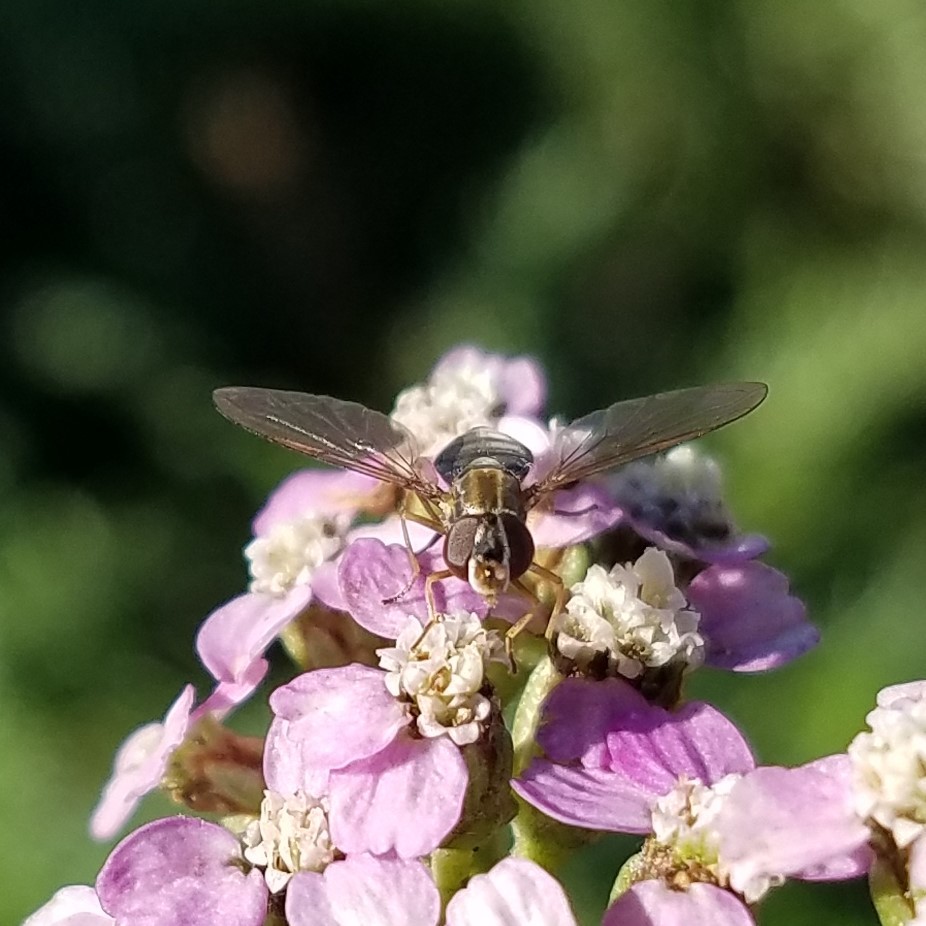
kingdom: Animalia
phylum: Arthropoda
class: Insecta
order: Diptera
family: Syrphidae
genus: Toxomerus
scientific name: Toxomerus marginatus
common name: Syrphid fly
